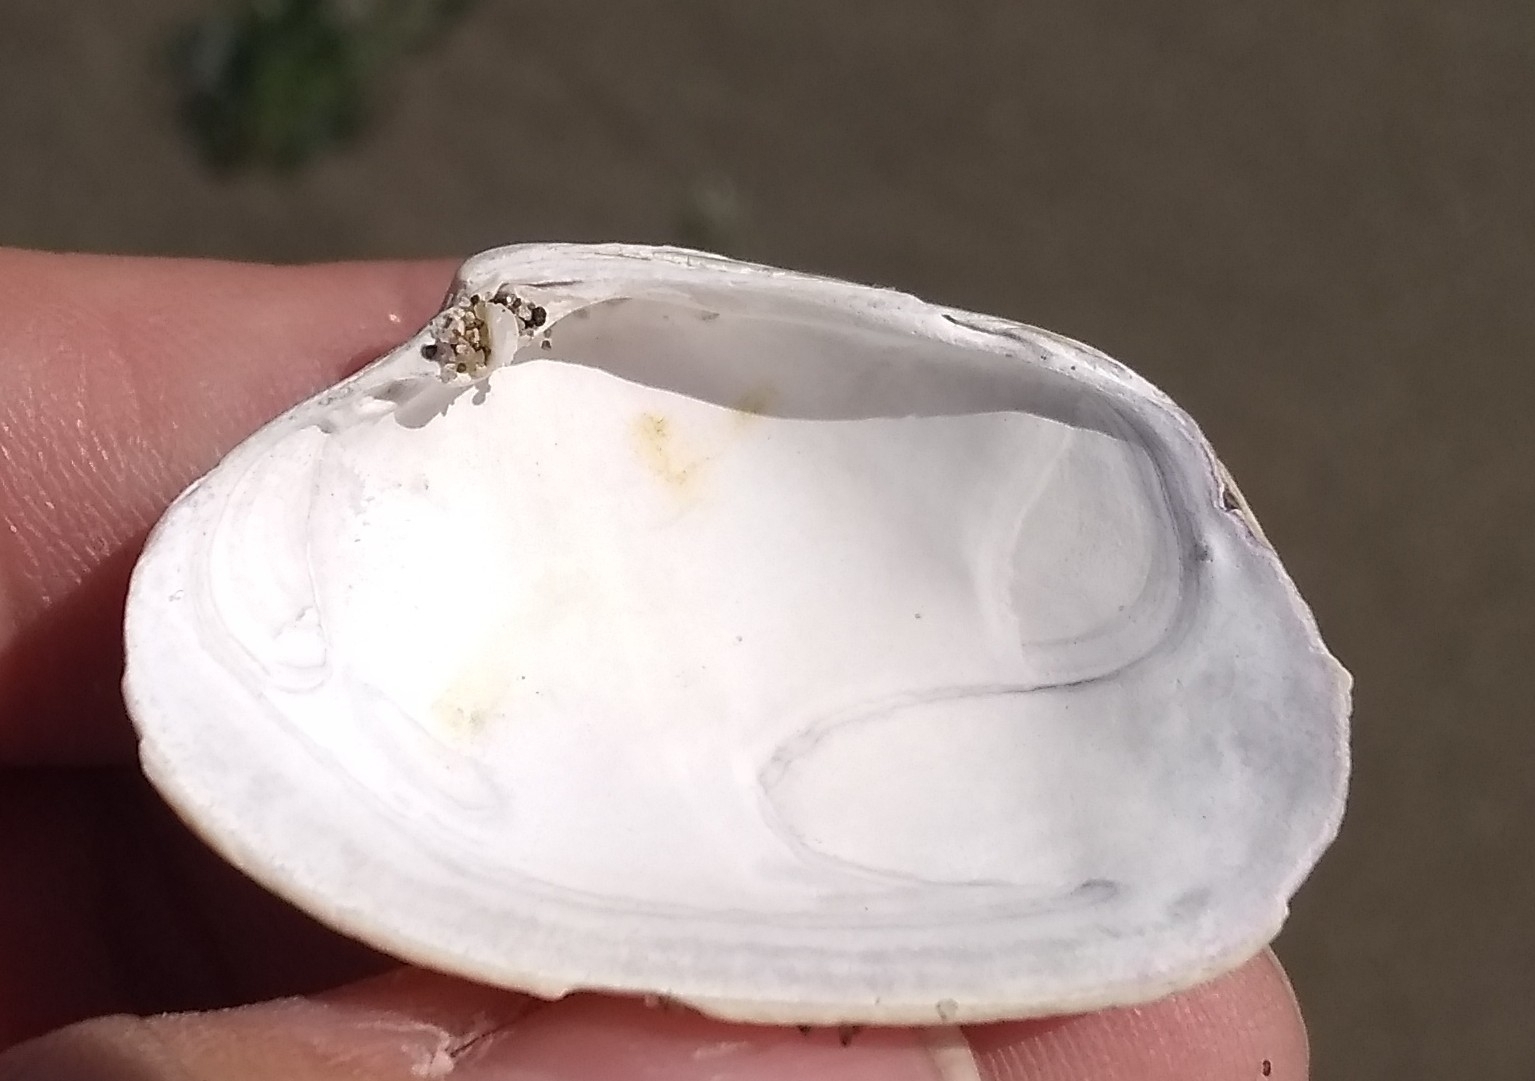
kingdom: Animalia
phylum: Mollusca
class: Bivalvia
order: Venerida
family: Veneridae
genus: Ruditapes
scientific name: Ruditapes philippinarum
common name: Manila clam
